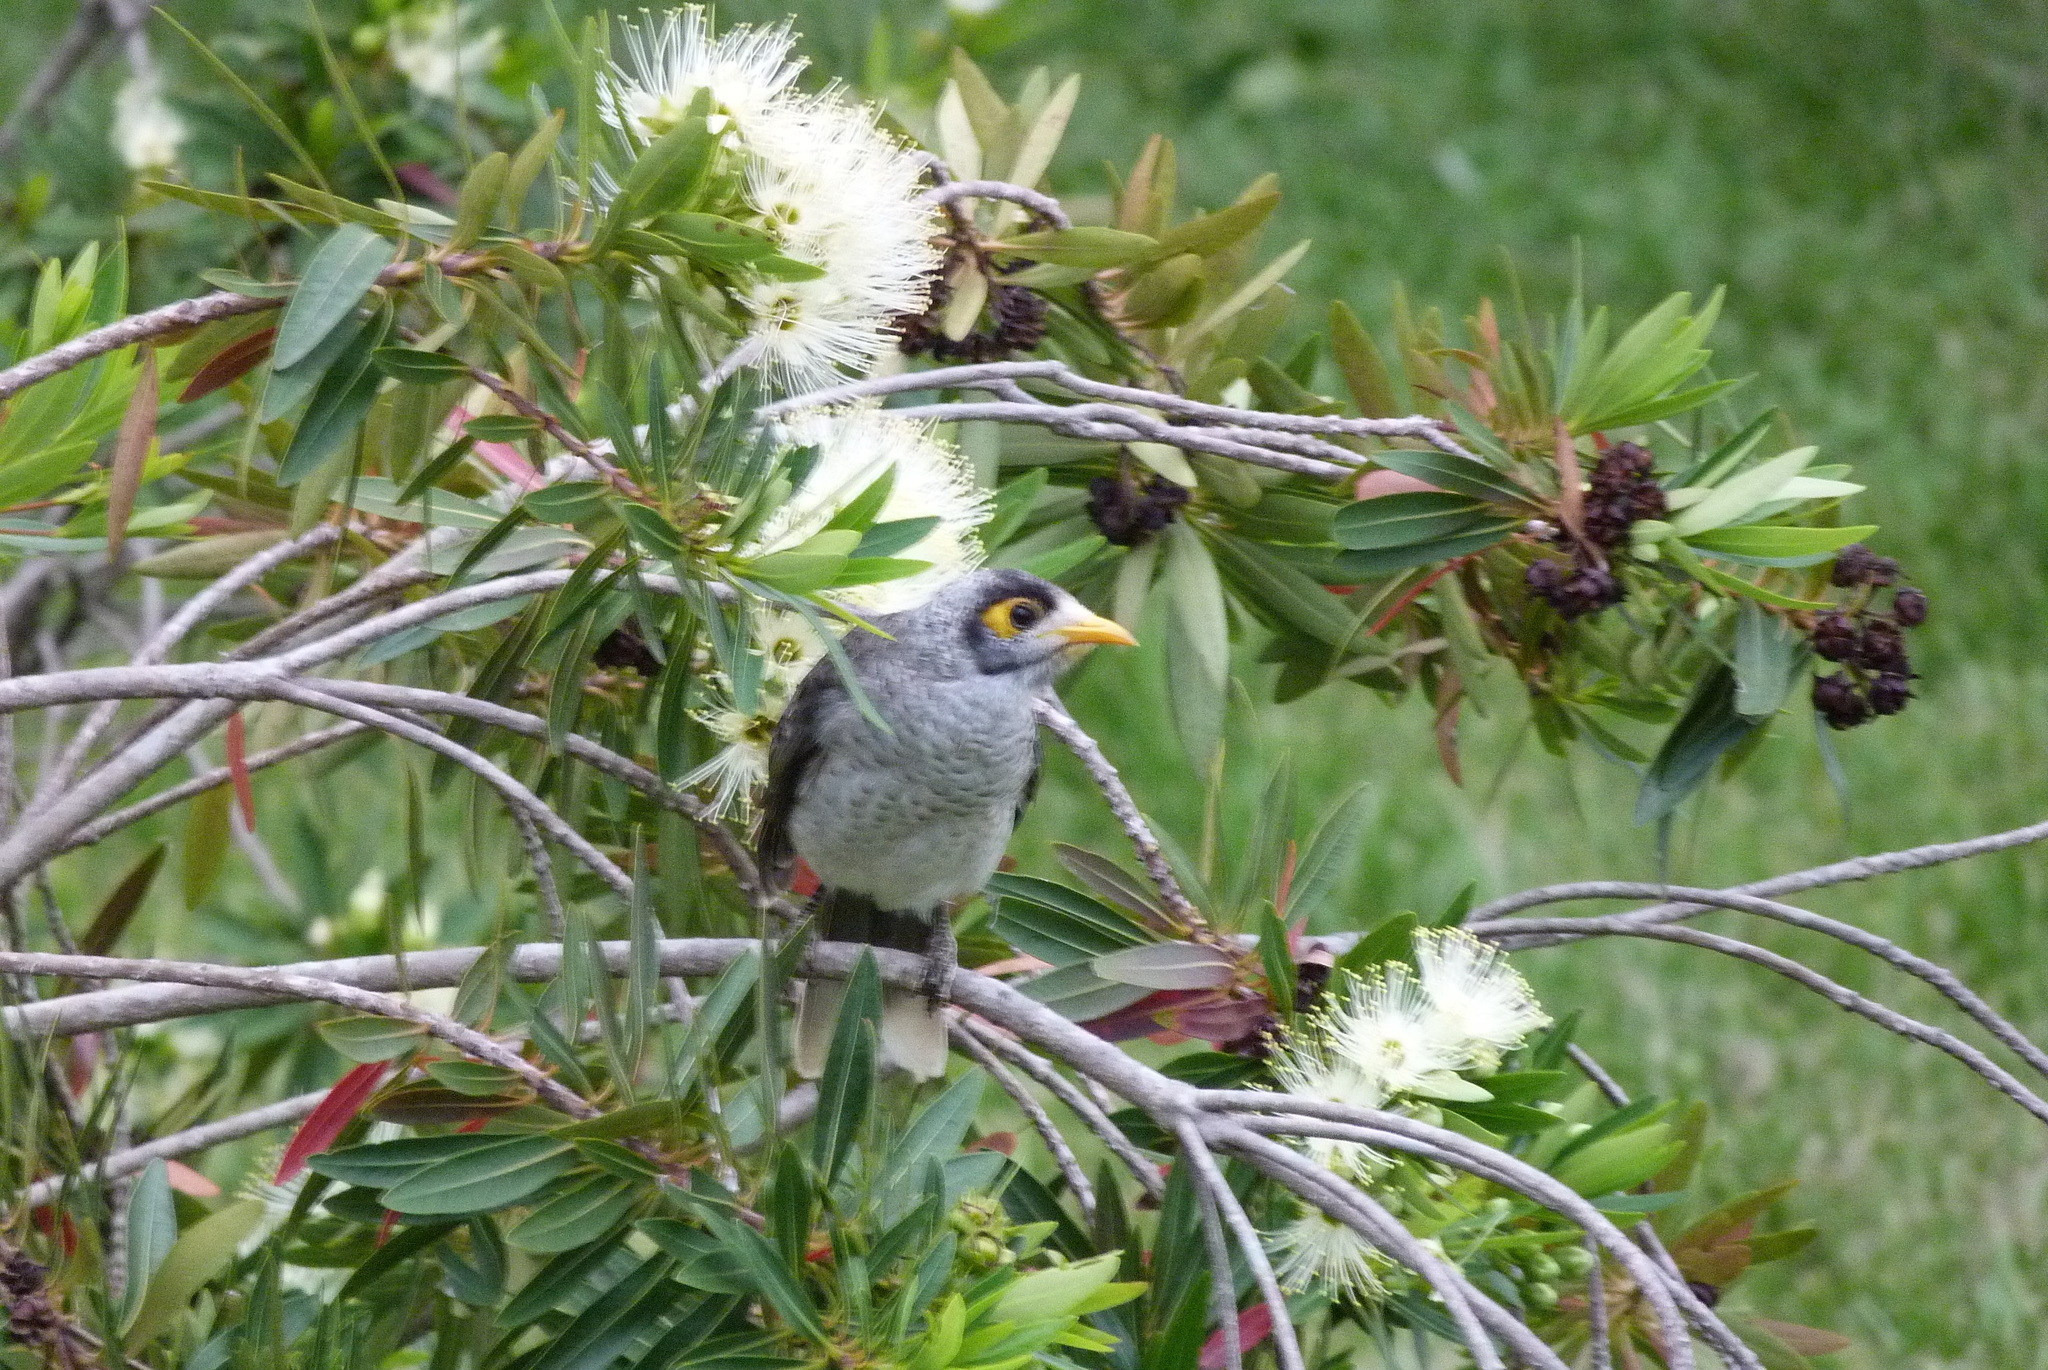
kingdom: Animalia
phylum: Chordata
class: Aves
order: Passeriformes
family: Meliphagidae
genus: Manorina
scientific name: Manorina melanocephala
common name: Noisy miner
